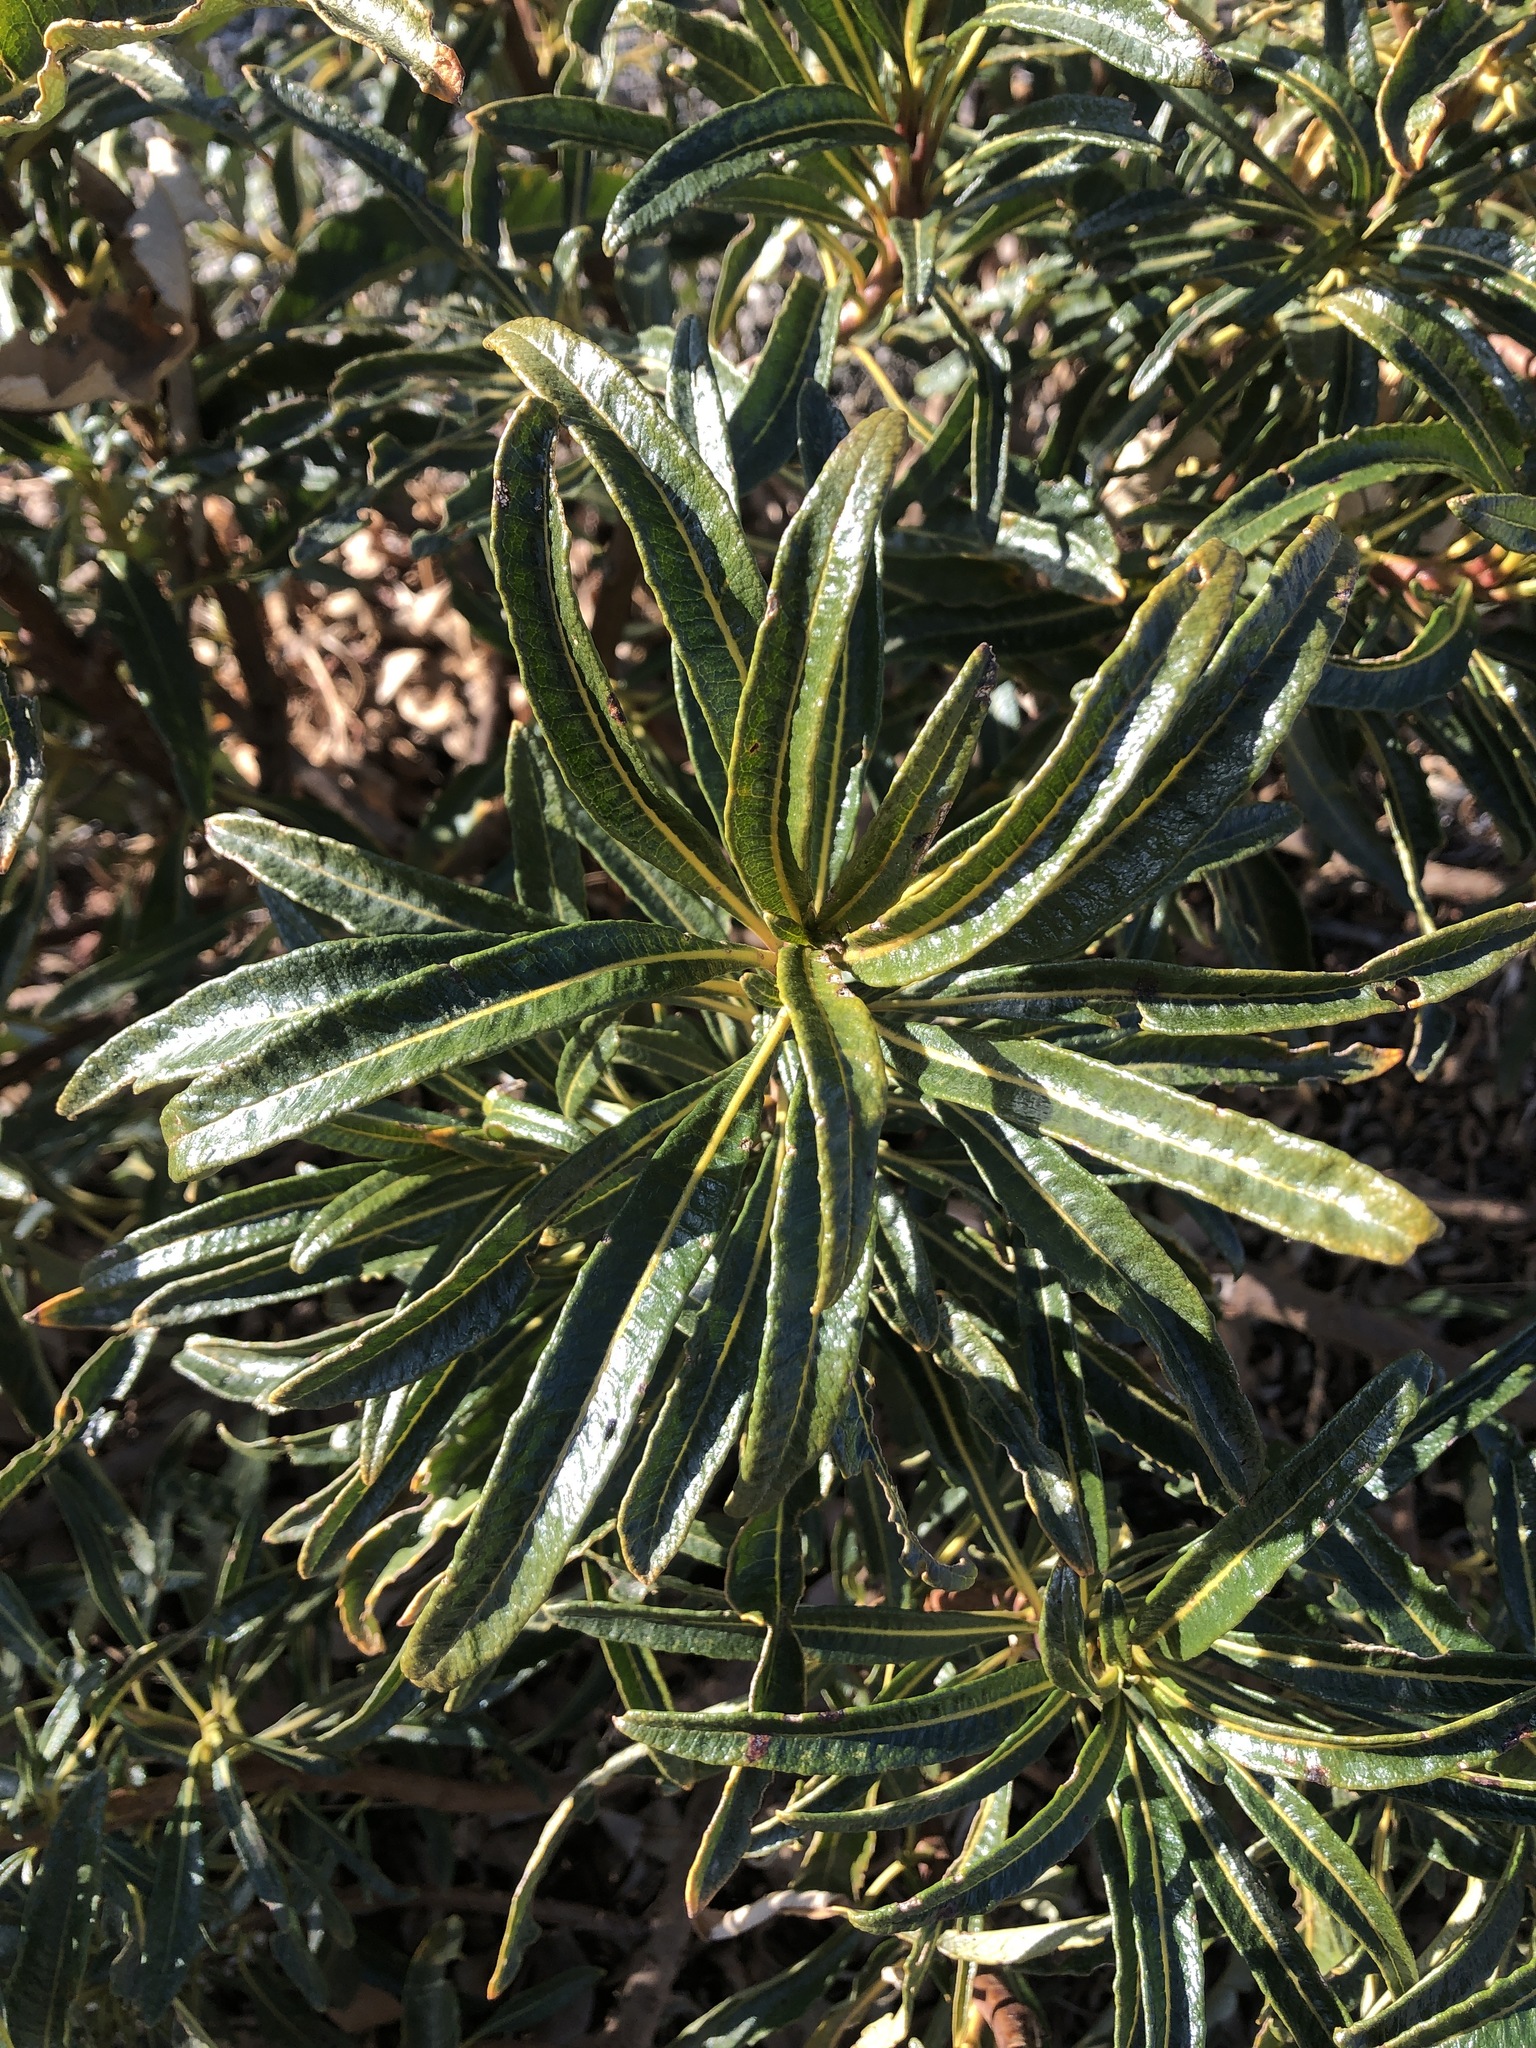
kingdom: Plantae
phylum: Tracheophyta
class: Magnoliopsida
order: Boraginales
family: Namaceae
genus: Eriodictyon
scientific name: Eriodictyon trichocalyx
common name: Hairy yerba-santa
